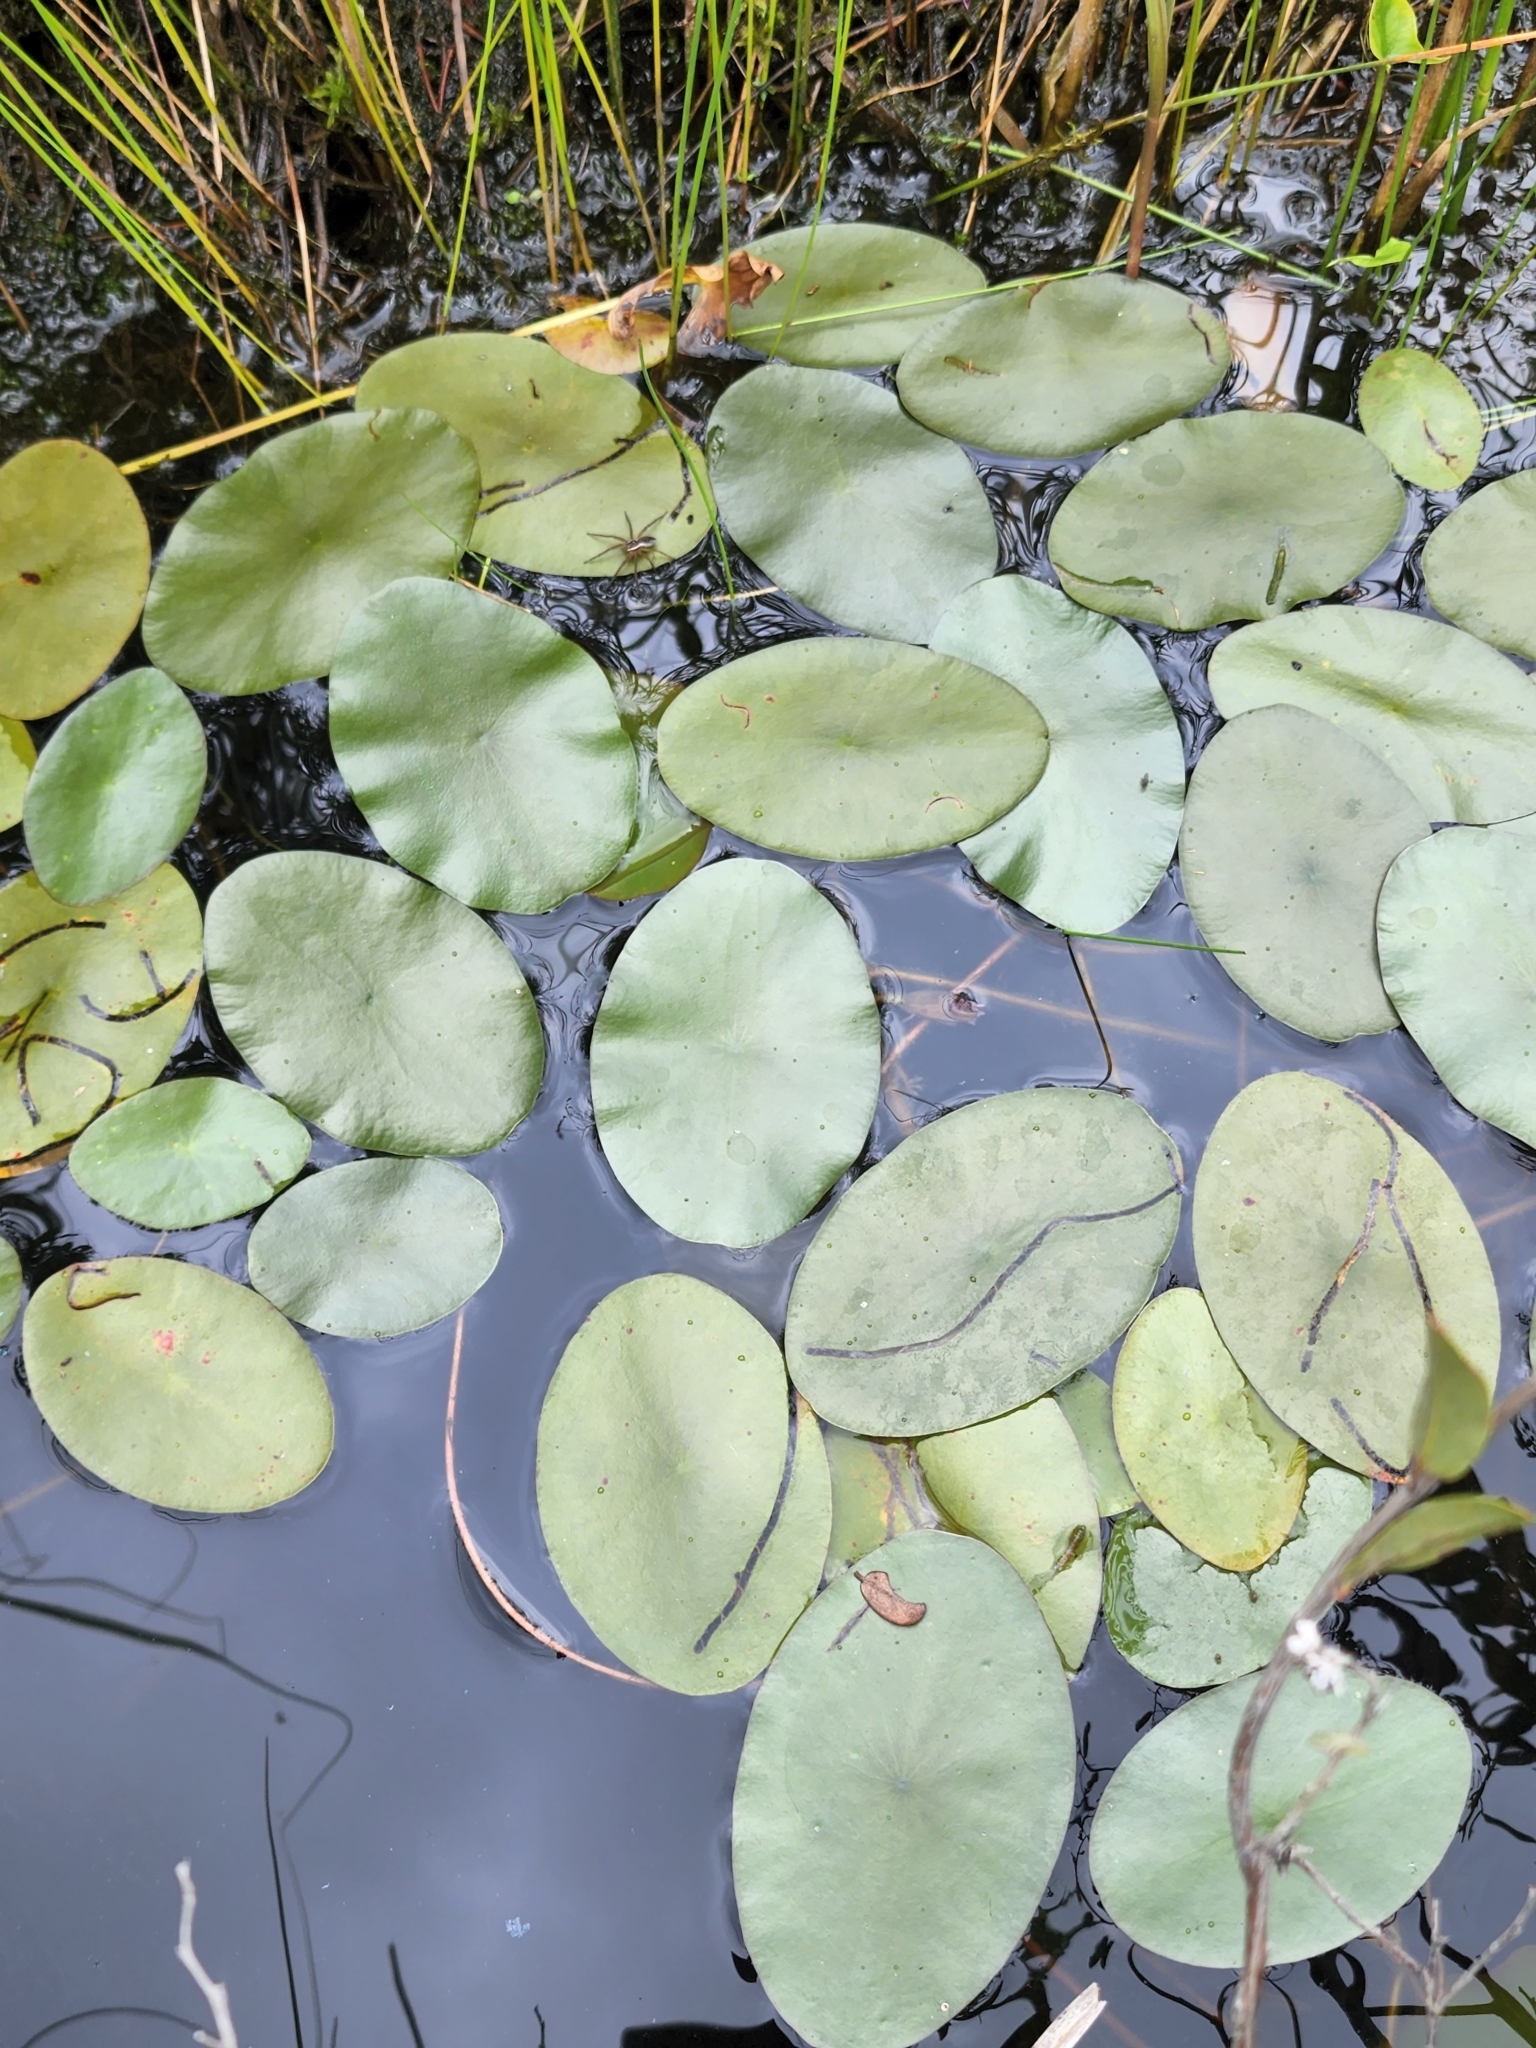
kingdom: Plantae
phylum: Tracheophyta
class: Magnoliopsida
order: Nymphaeales
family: Cabombaceae
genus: Brasenia
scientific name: Brasenia schreberi
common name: Water-shield
